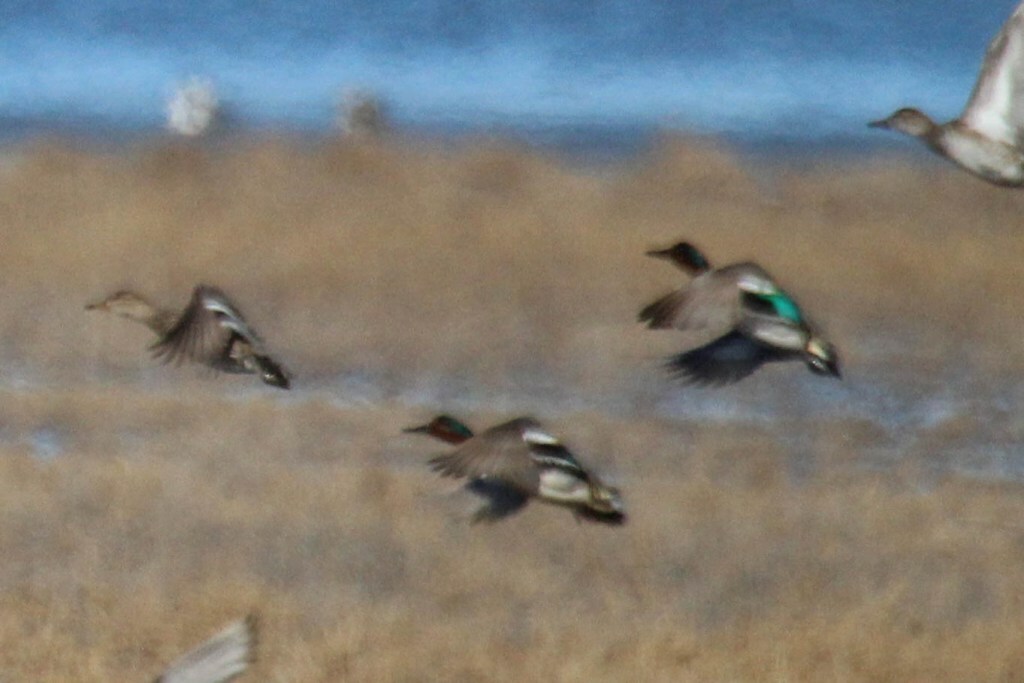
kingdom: Animalia
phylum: Chordata
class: Aves
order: Anseriformes
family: Anatidae
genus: Anas
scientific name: Anas crecca
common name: Eurasian teal
